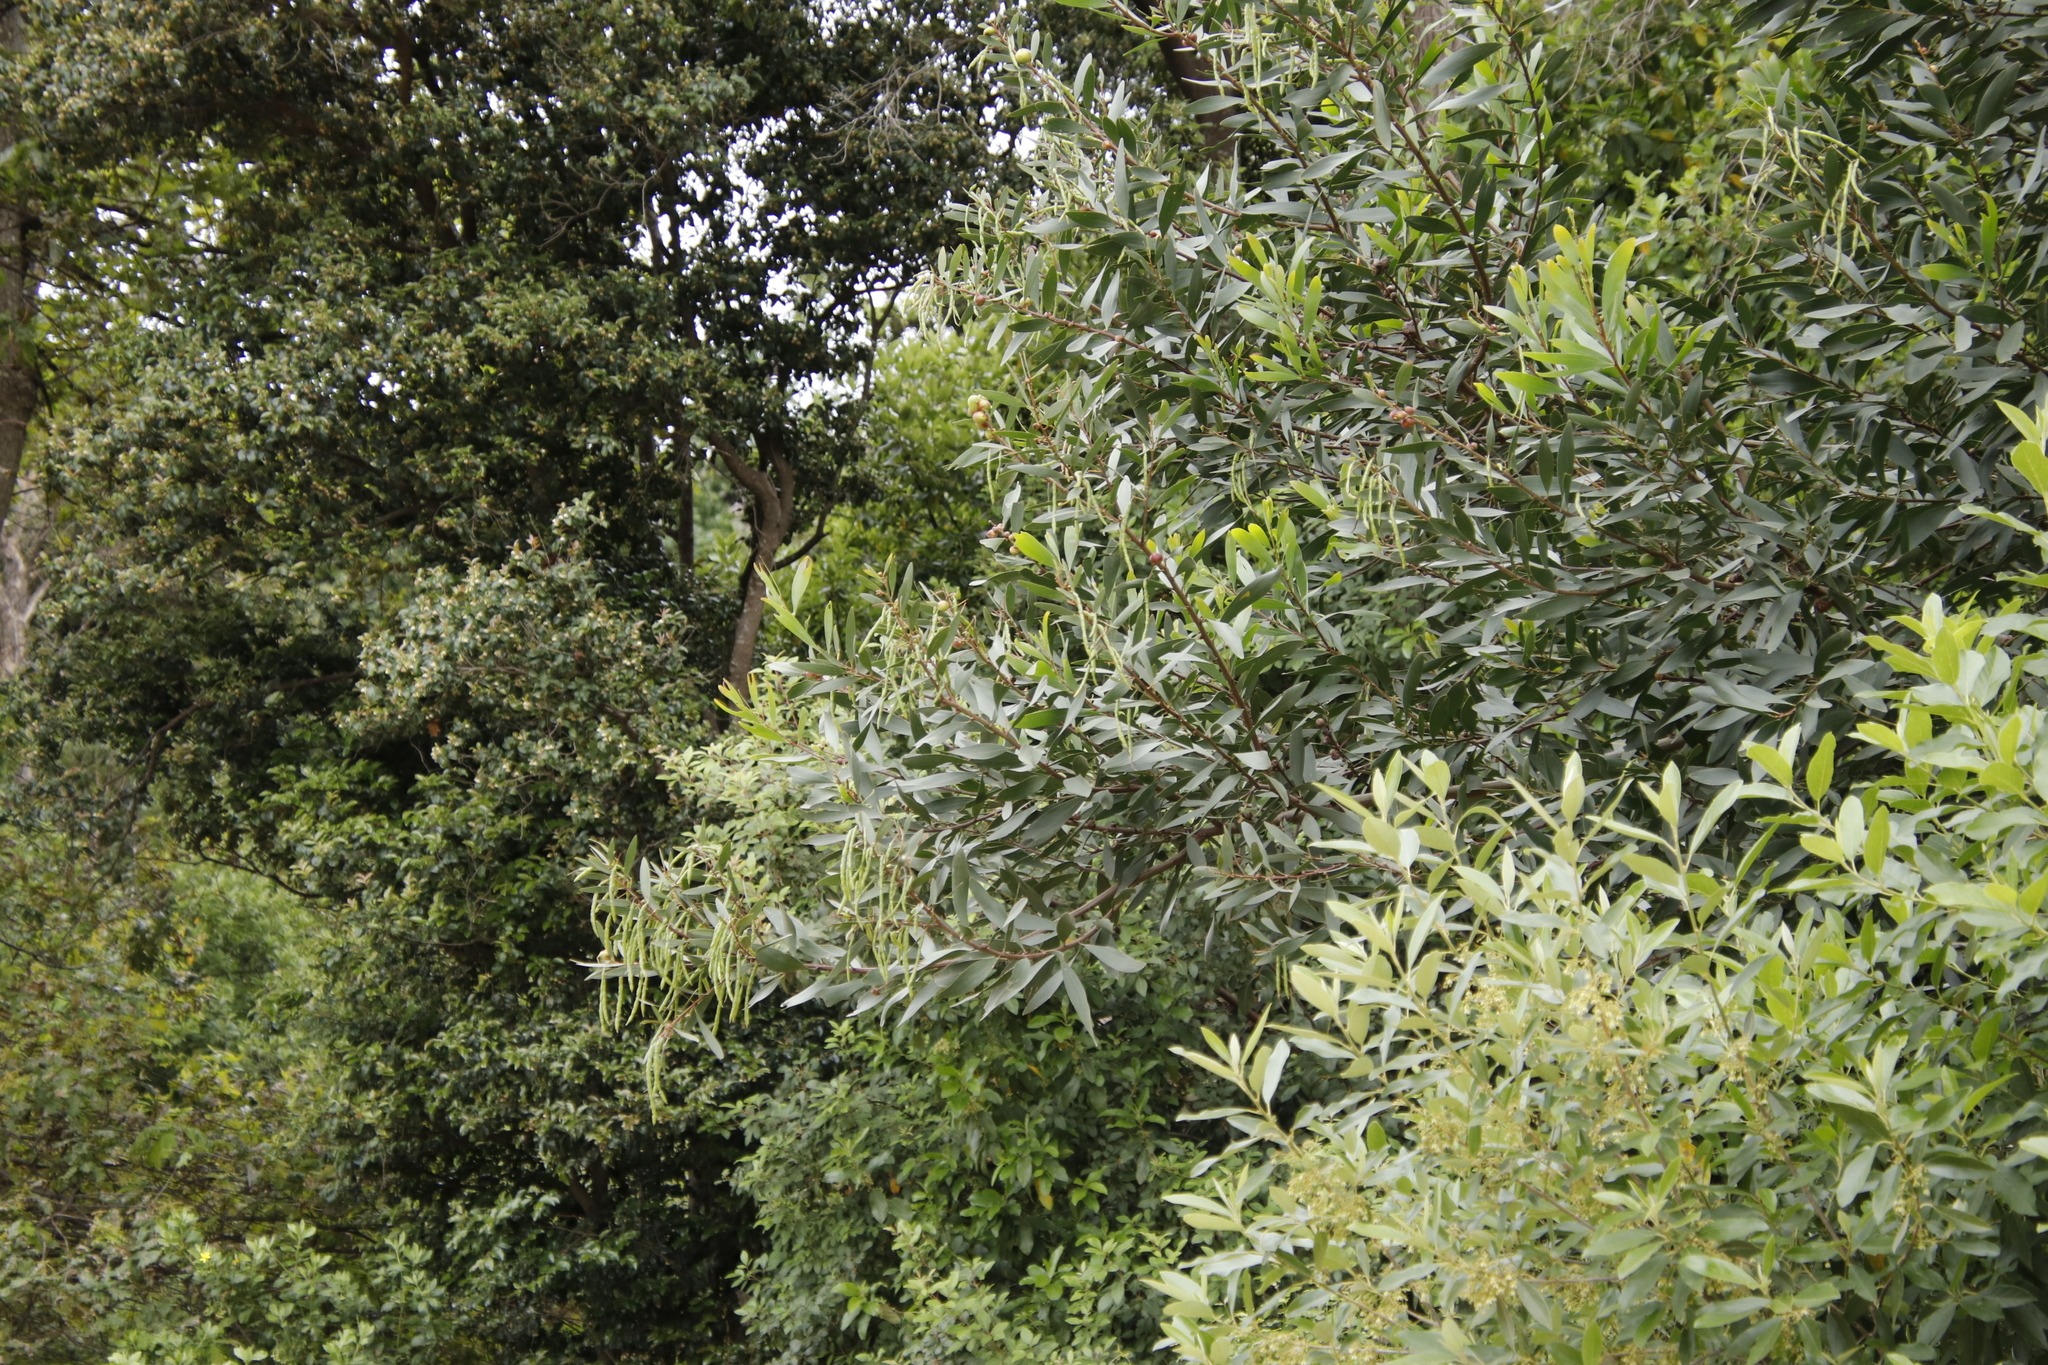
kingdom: Plantae
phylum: Tracheophyta
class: Magnoliopsida
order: Fabales
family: Fabaceae
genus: Acacia
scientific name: Acacia longifolia
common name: Sydney golden wattle
